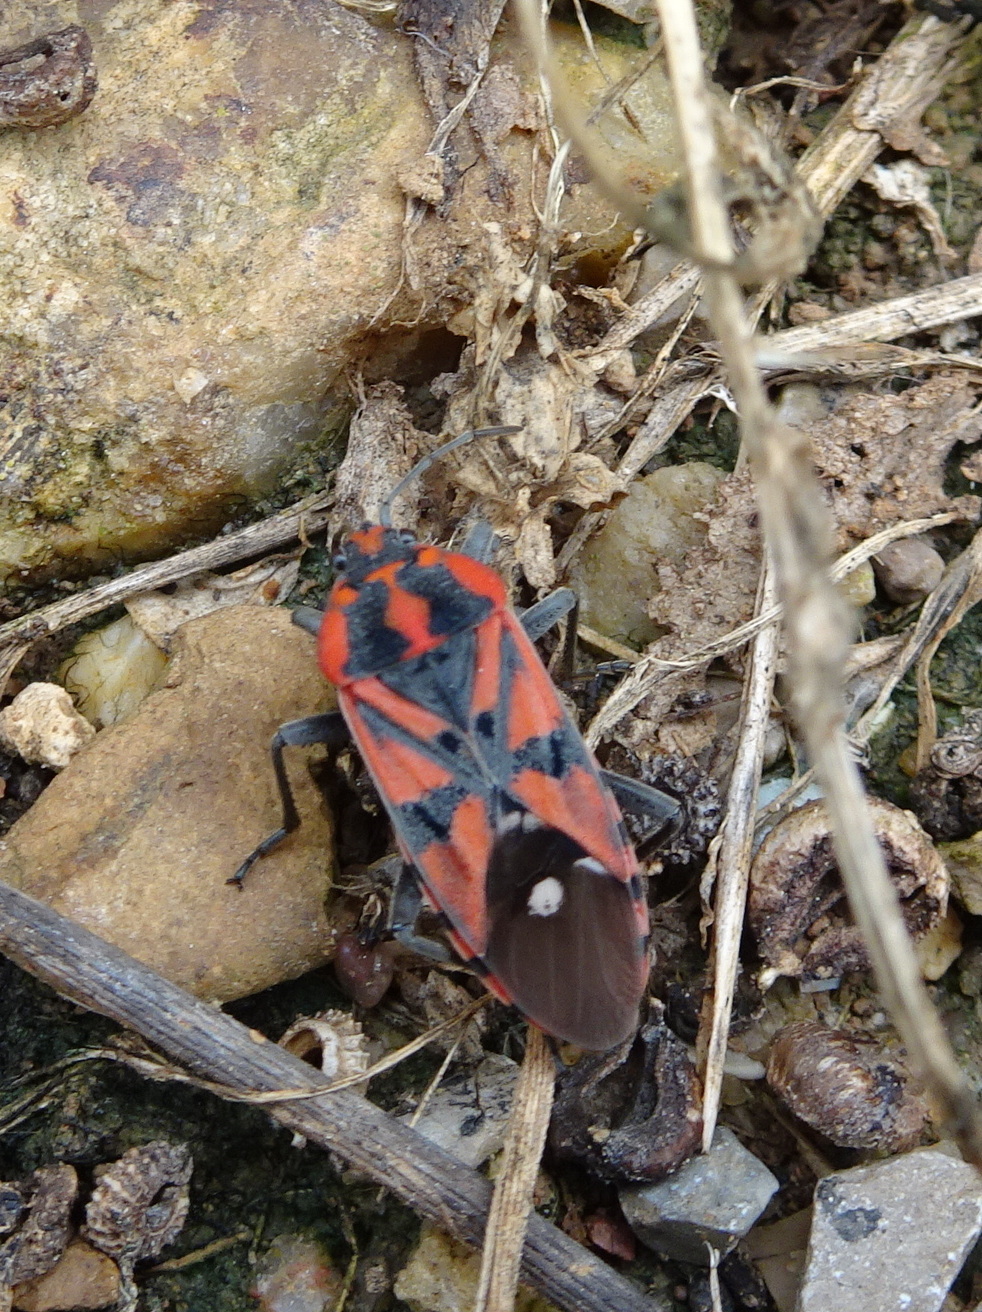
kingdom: Animalia
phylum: Arthropoda
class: Insecta
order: Hemiptera
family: Lygaeidae
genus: Spilostethus
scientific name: Spilostethus pandurus
